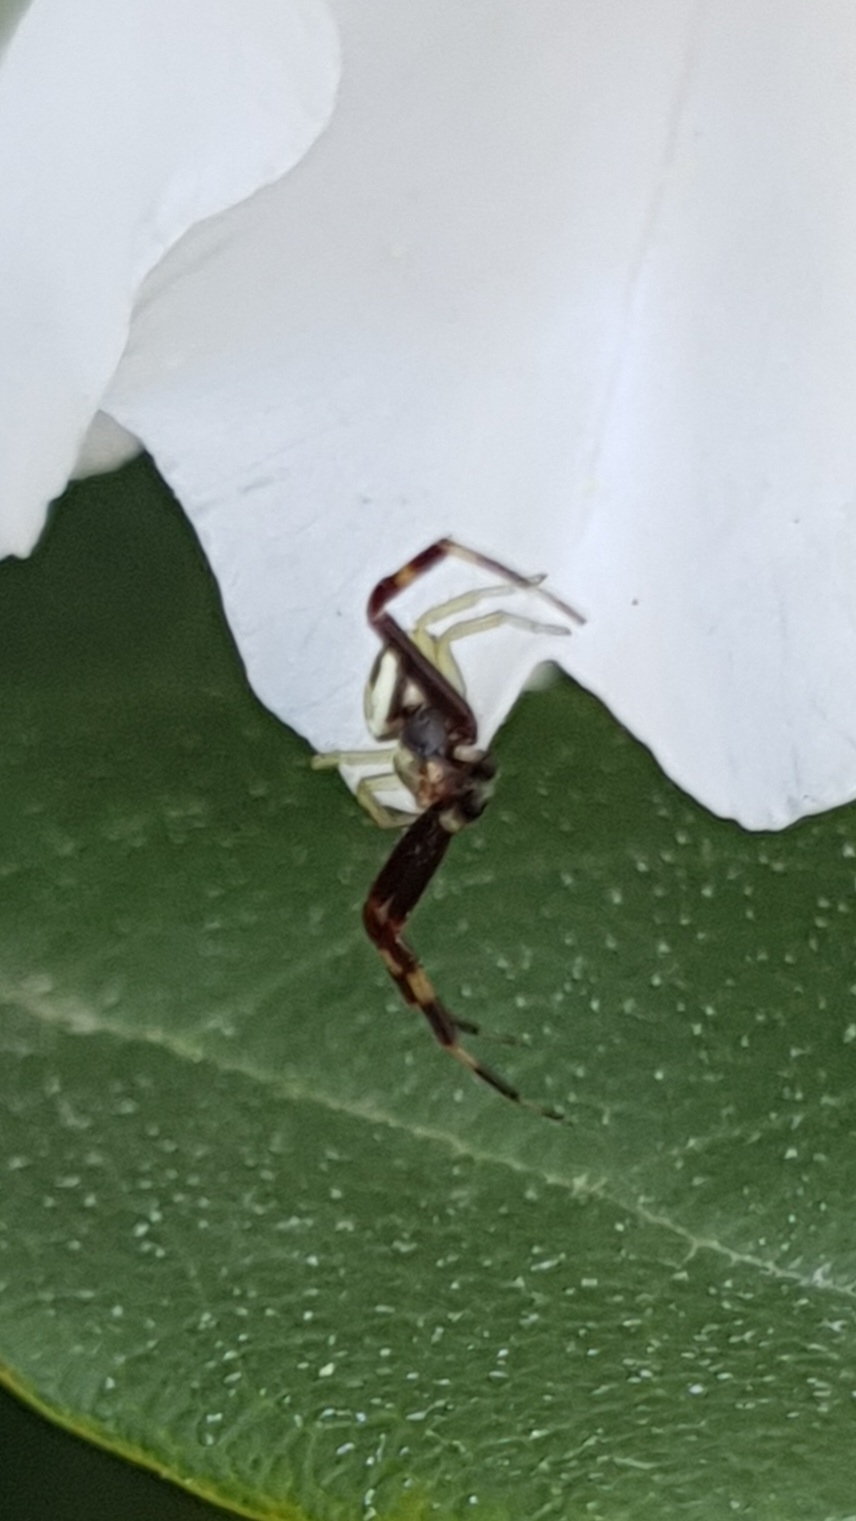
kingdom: Animalia
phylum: Arthropoda
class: Arachnida
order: Araneae
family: Thomisidae
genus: Misumena
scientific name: Misumena vatia
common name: Goldenrod crab spider
